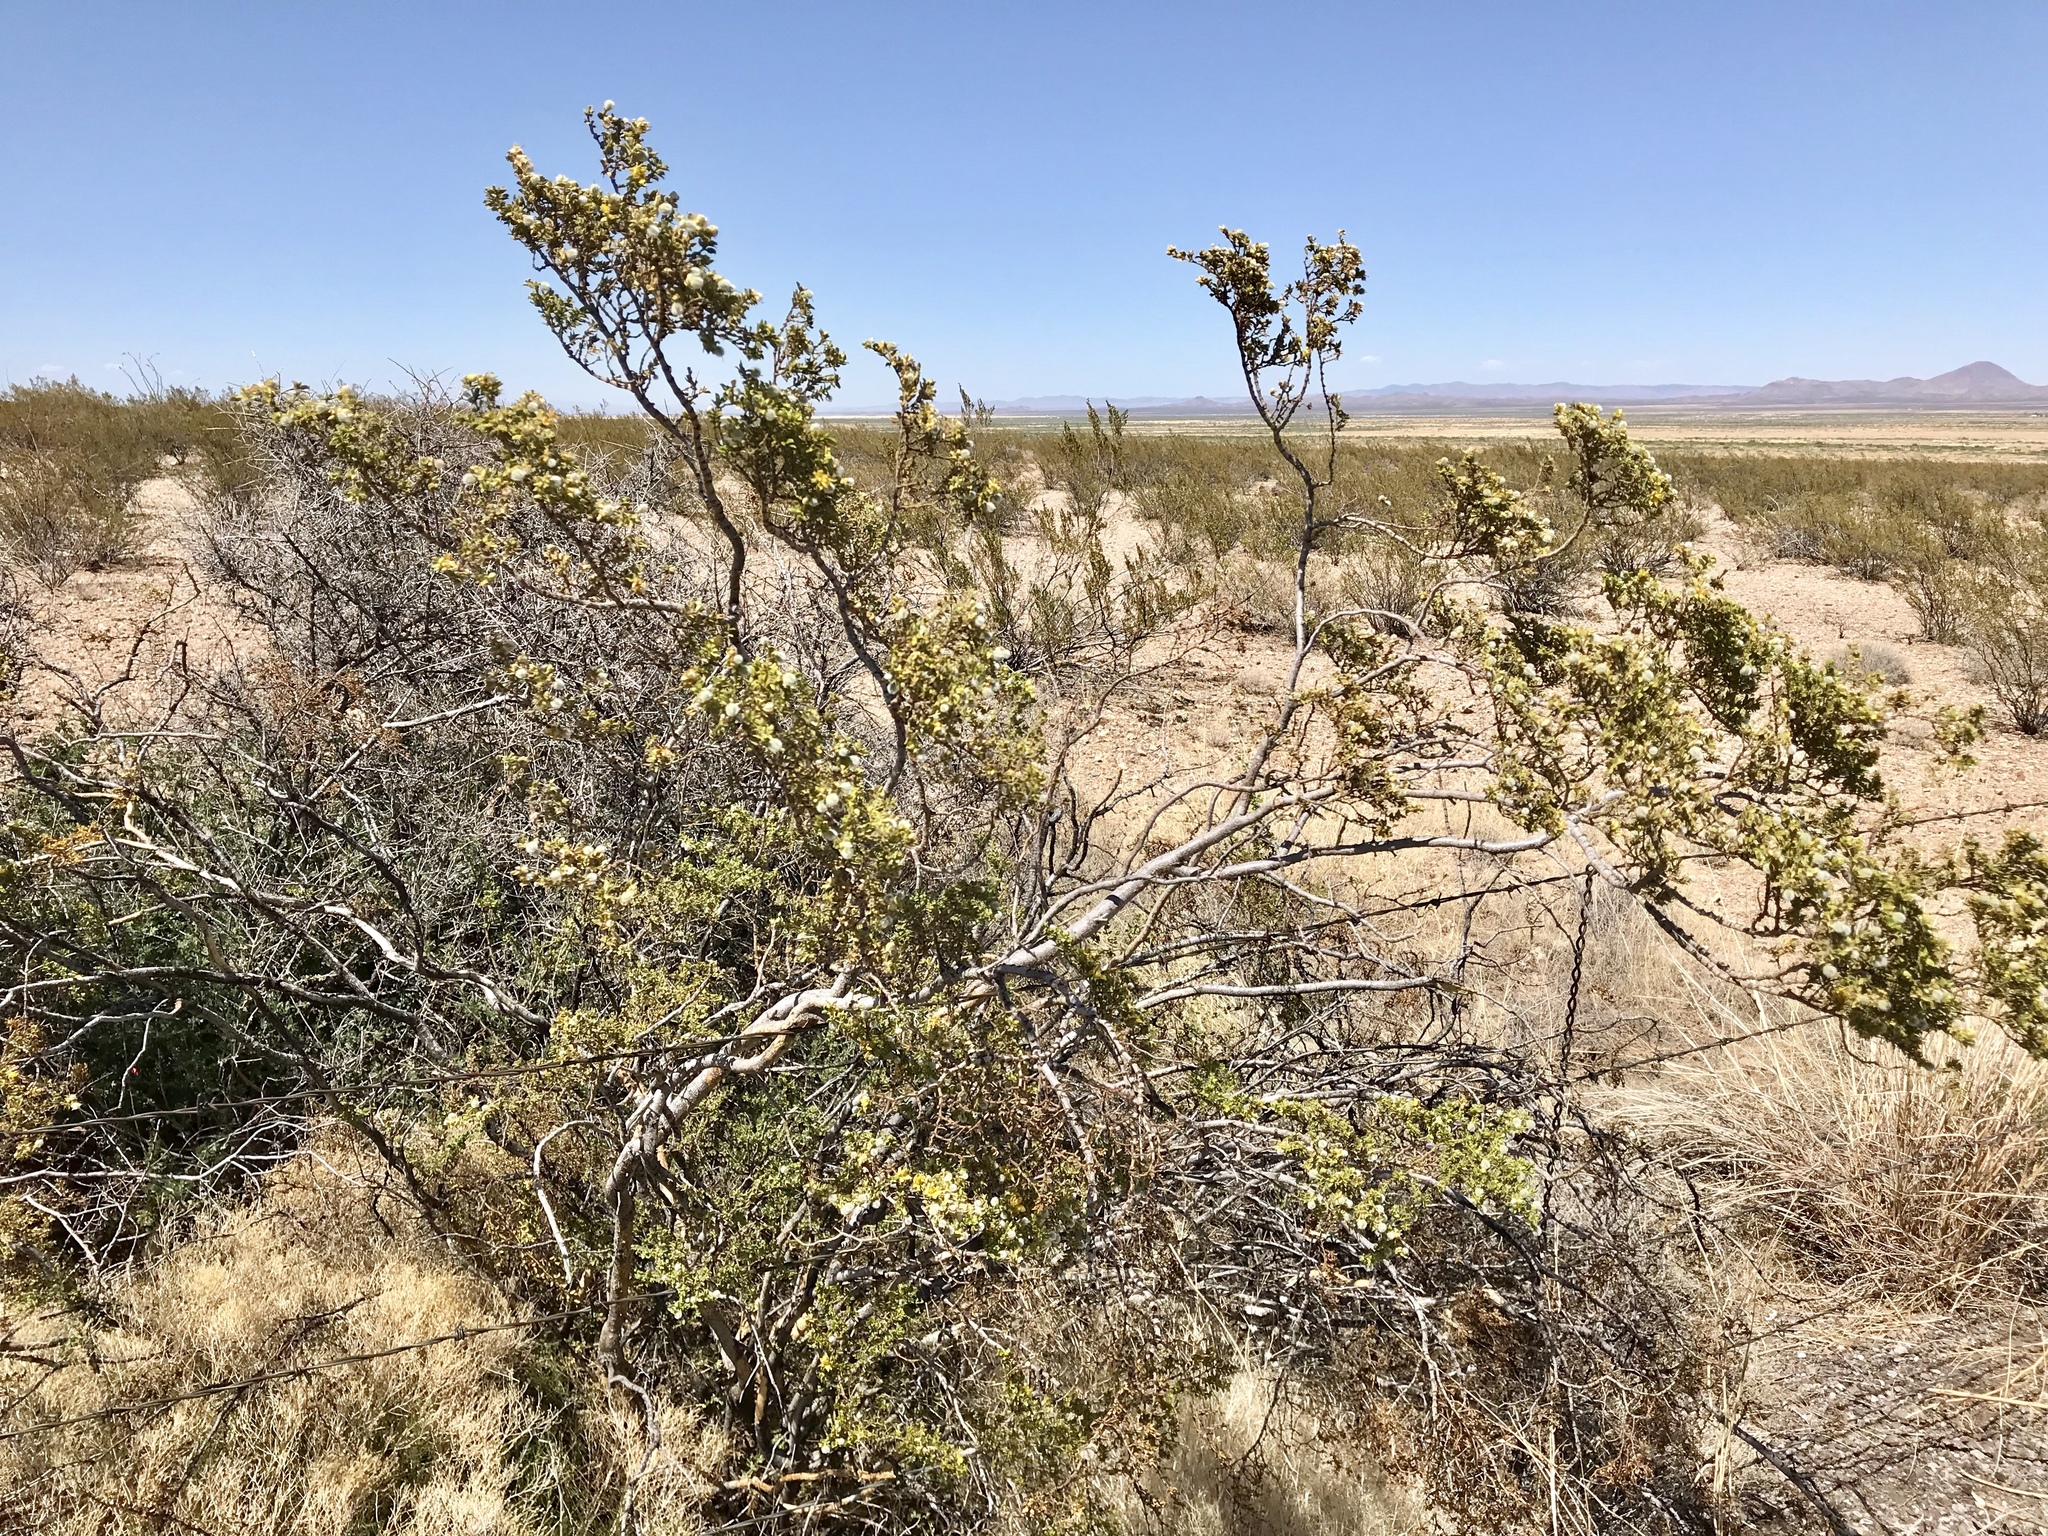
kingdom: Plantae
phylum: Tracheophyta
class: Magnoliopsida
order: Zygophyllales
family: Zygophyllaceae
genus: Larrea
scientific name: Larrea tridentata
